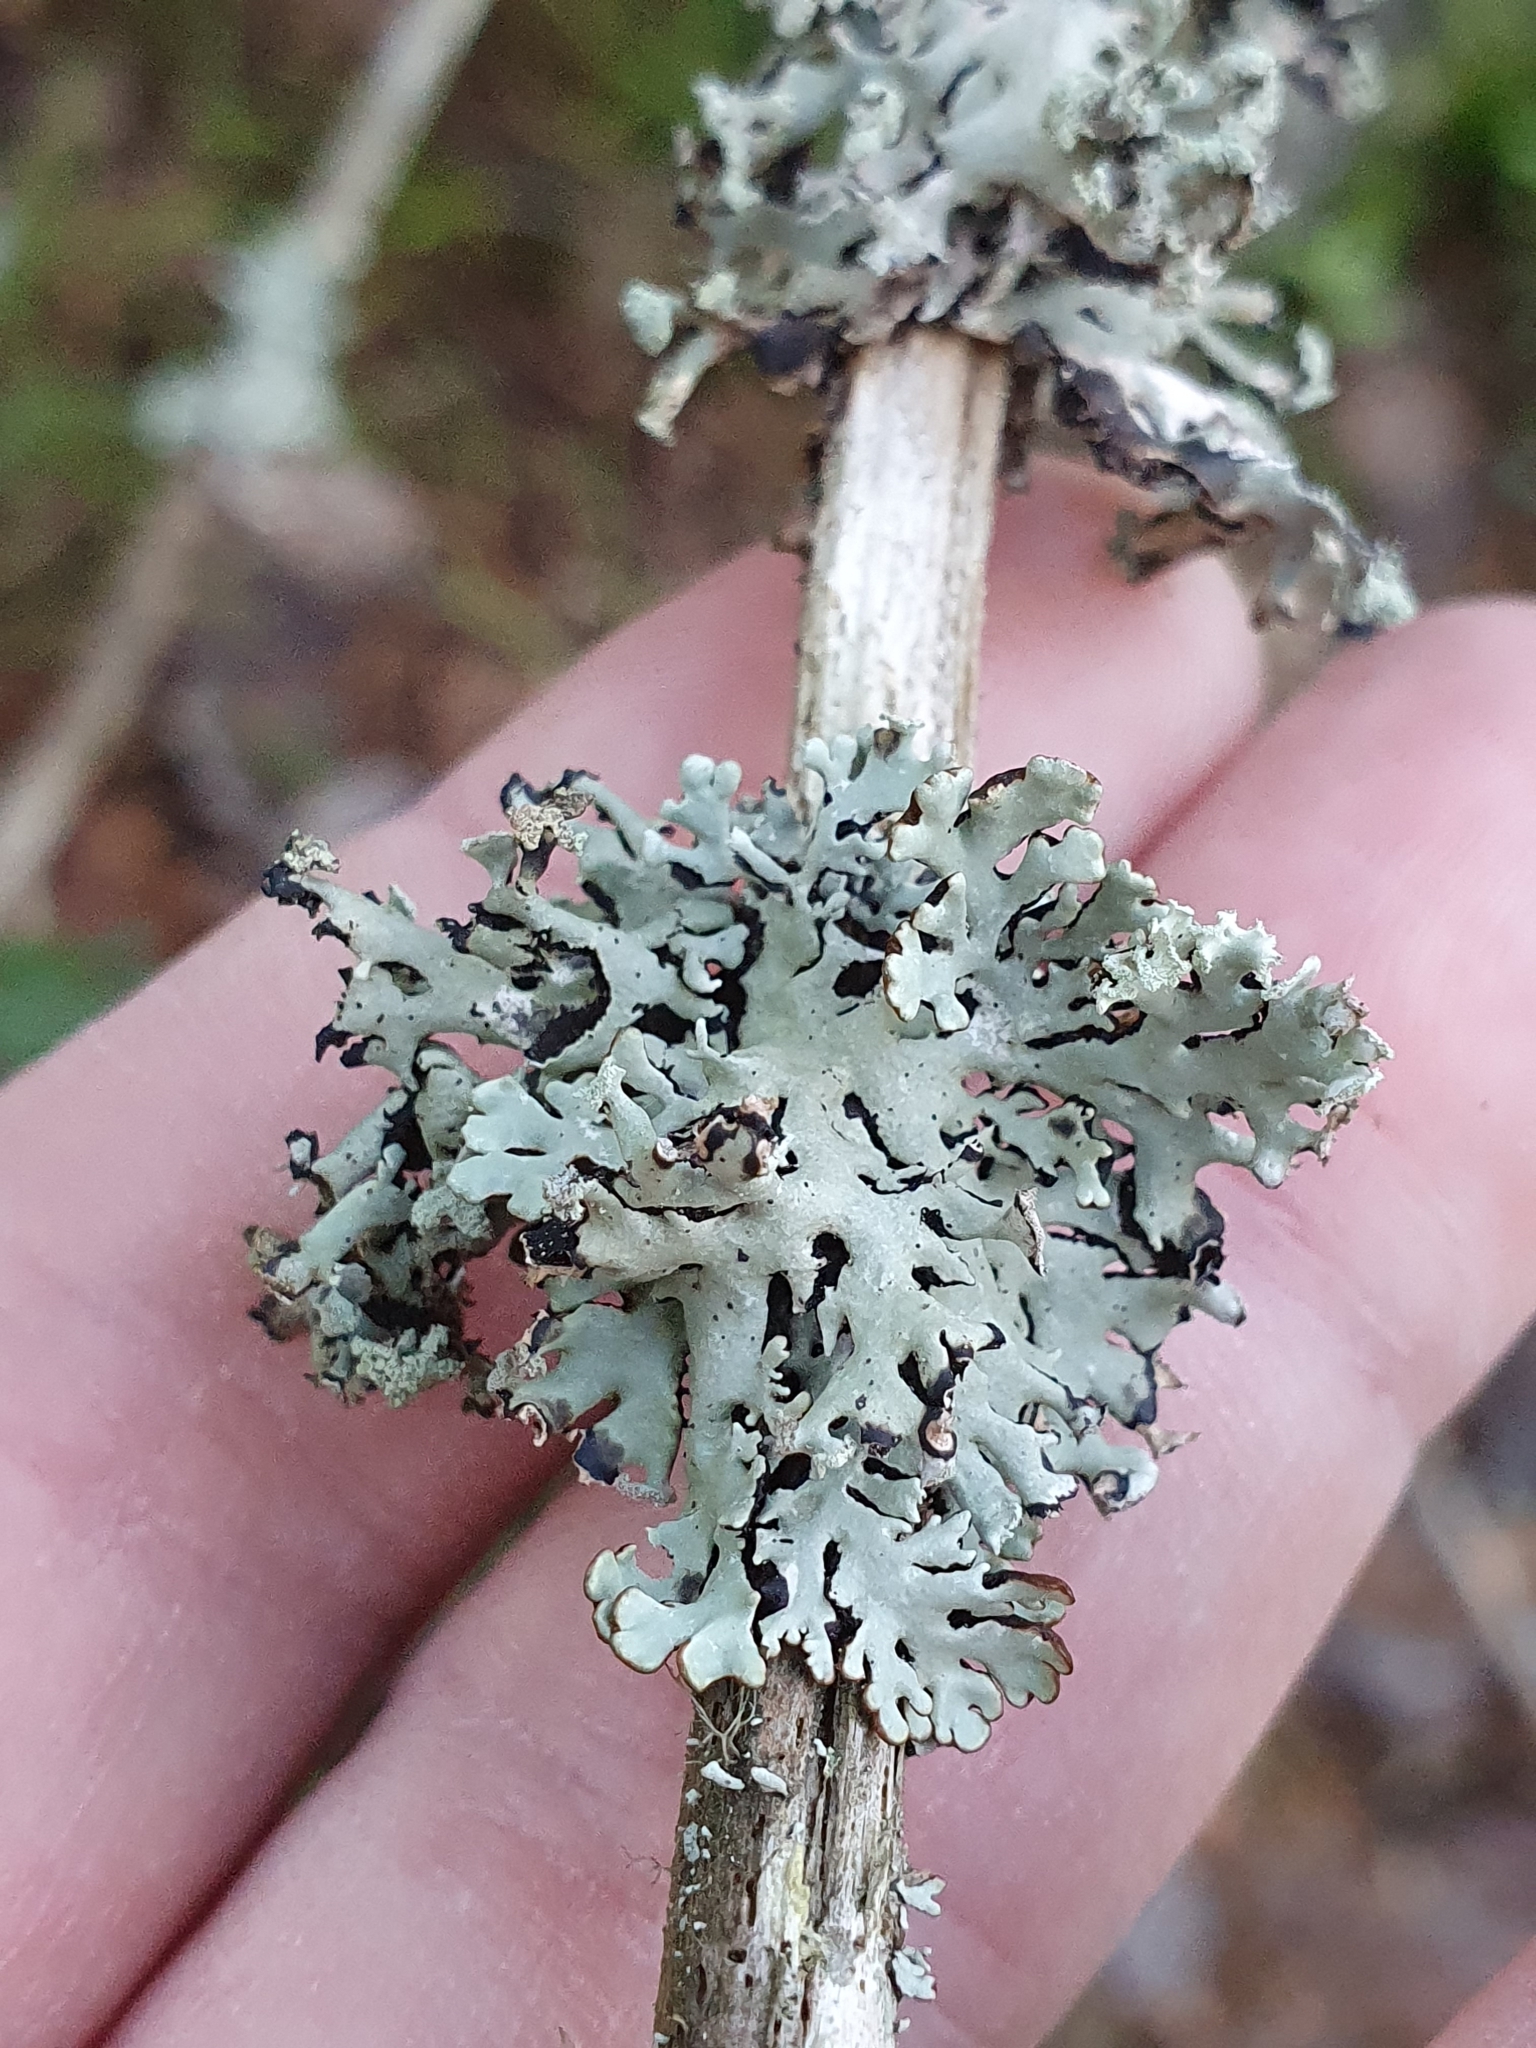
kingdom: Fungi
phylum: Ascomycota
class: Lecanoromycetes
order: Lecanorales
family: Parmeliaceae
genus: Hypogymnia
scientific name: Hypogymnia physodes
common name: Dark crottle
